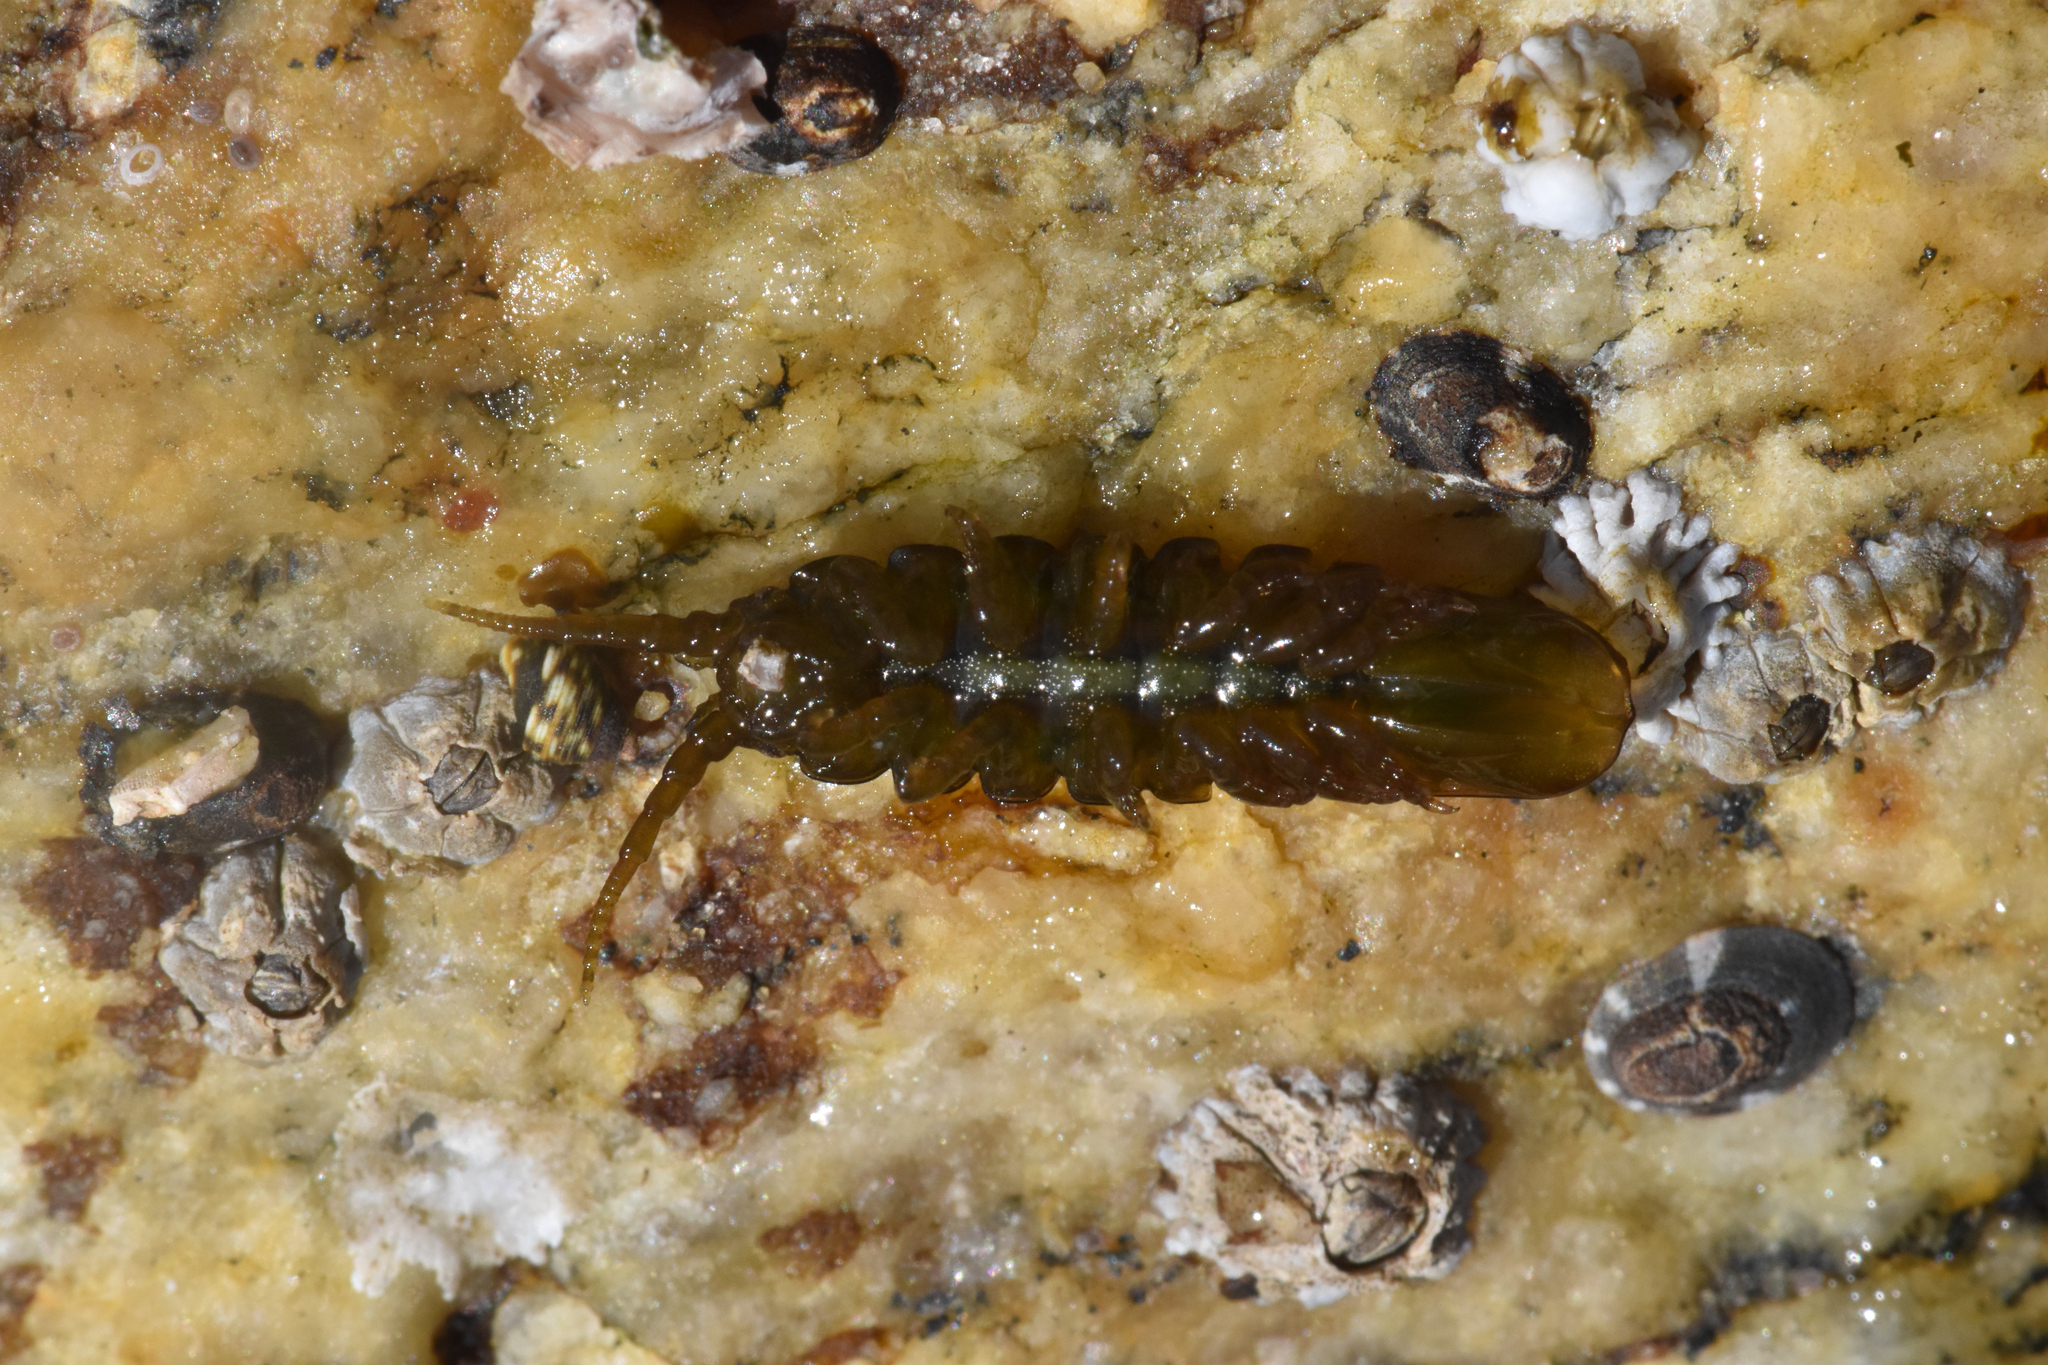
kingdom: Animalia
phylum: Arthropoda
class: Malacostraca
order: Isopoda
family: Idoteidae
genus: Pentidotea
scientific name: Pentidotea wosnesenskii
